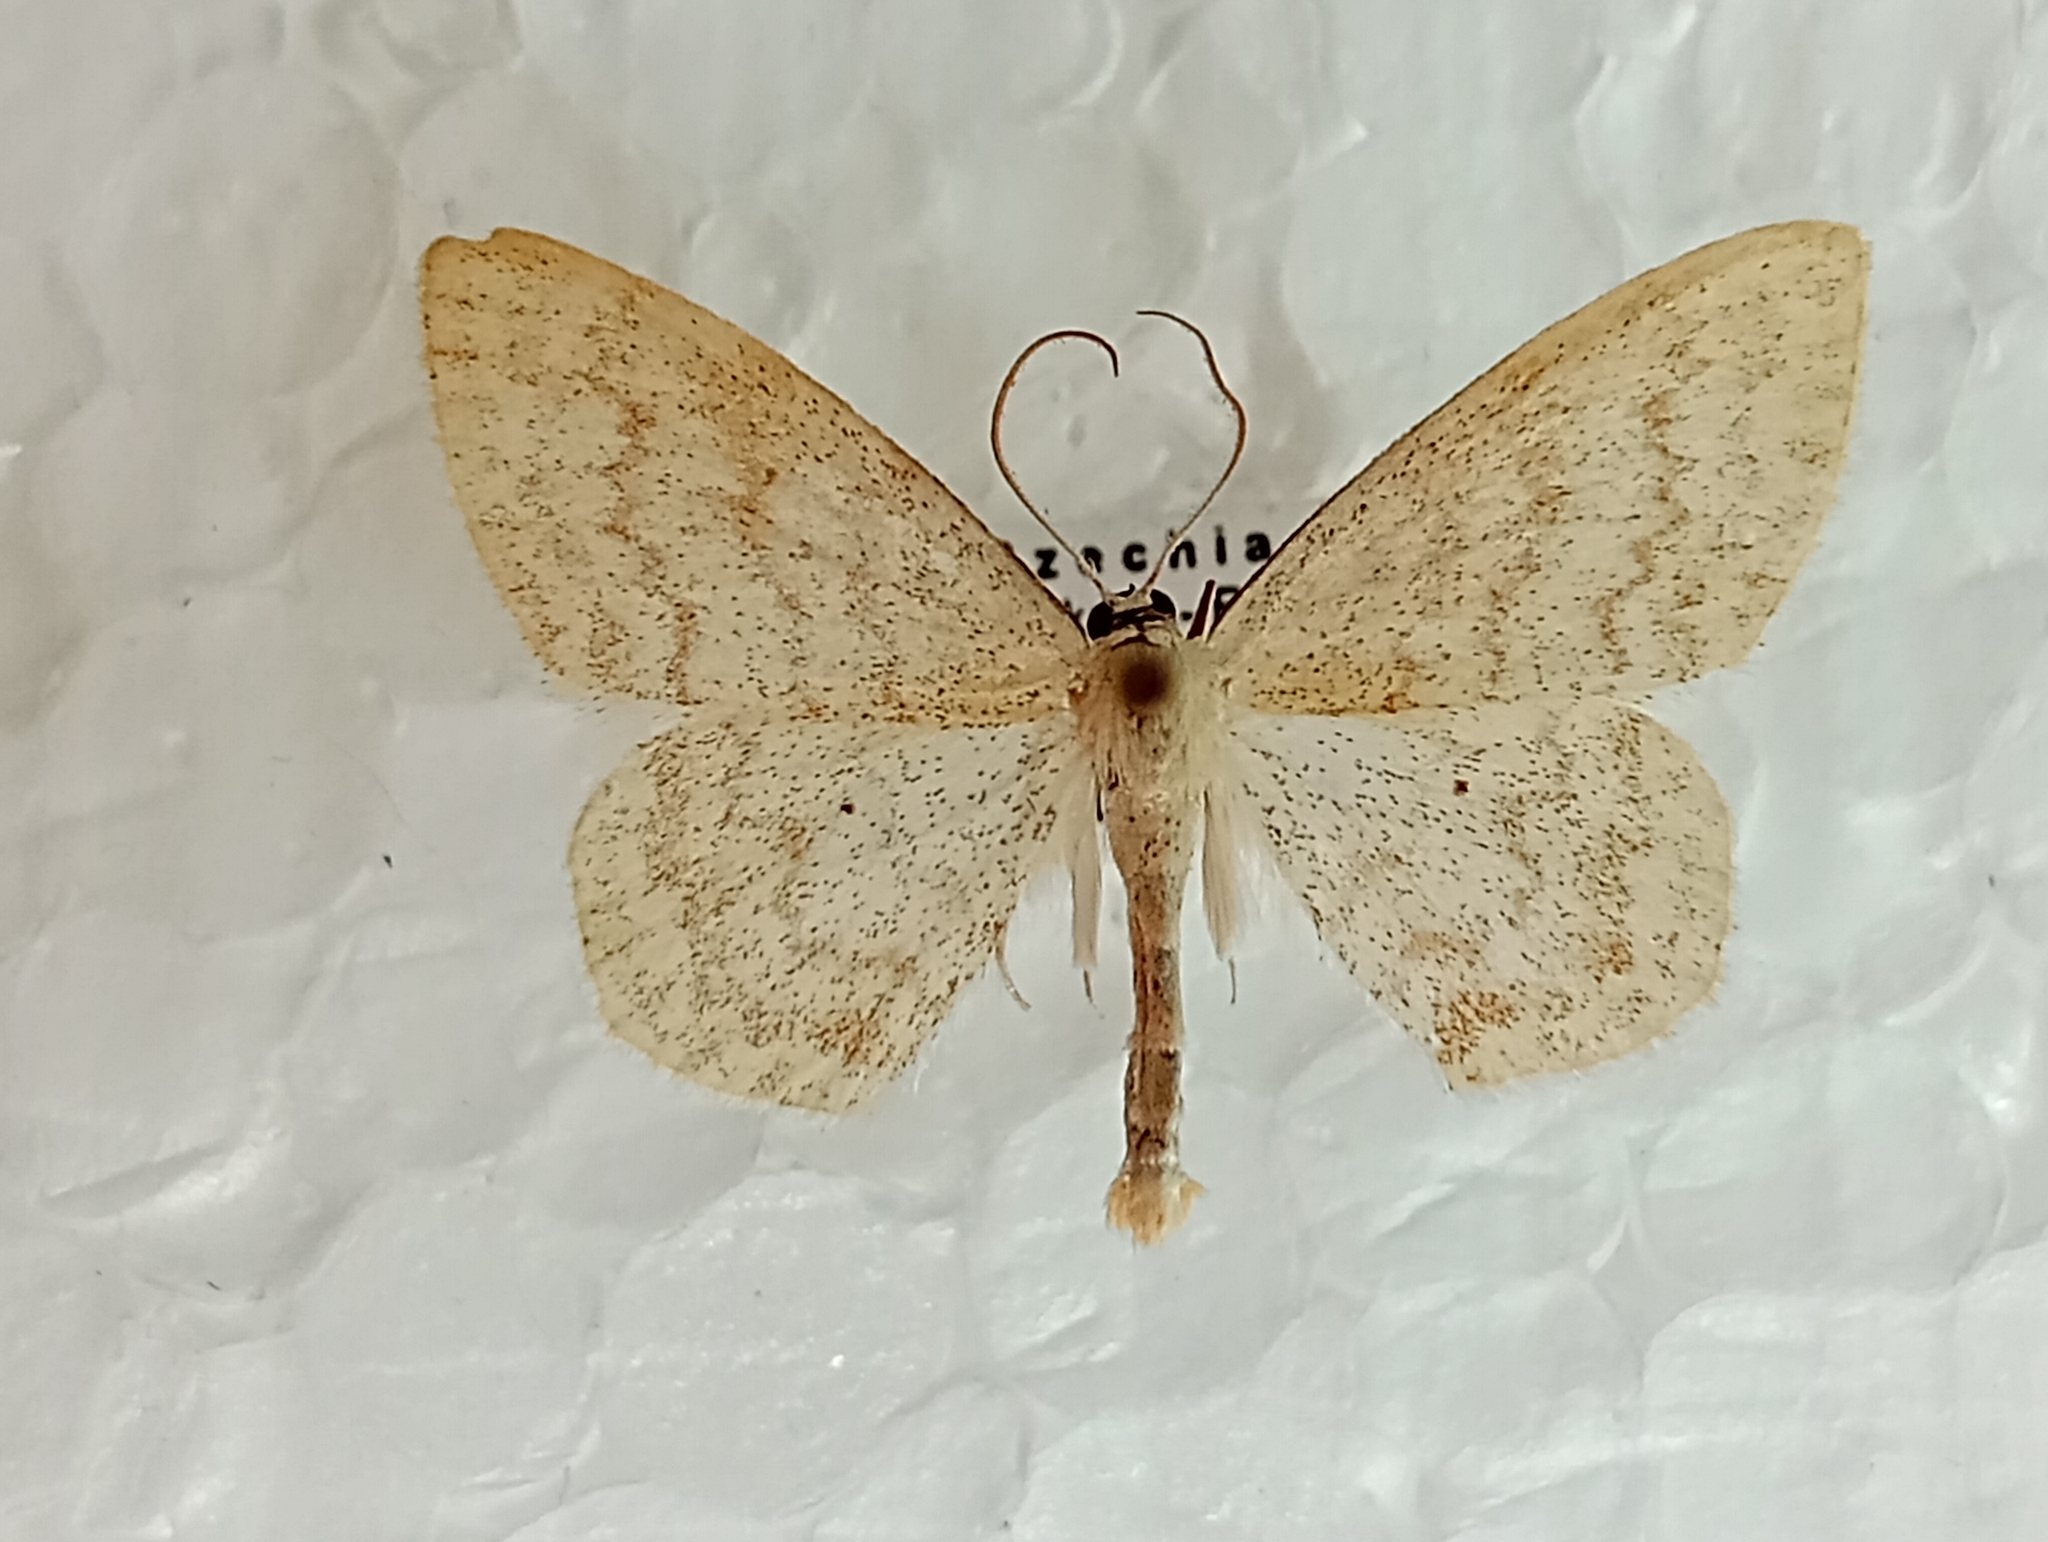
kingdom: Animalia
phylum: Arthropoda
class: Insecta
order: Lepidoptera
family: Geometridae
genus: Scopula
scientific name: Scopula floslactata
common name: Cream wave
